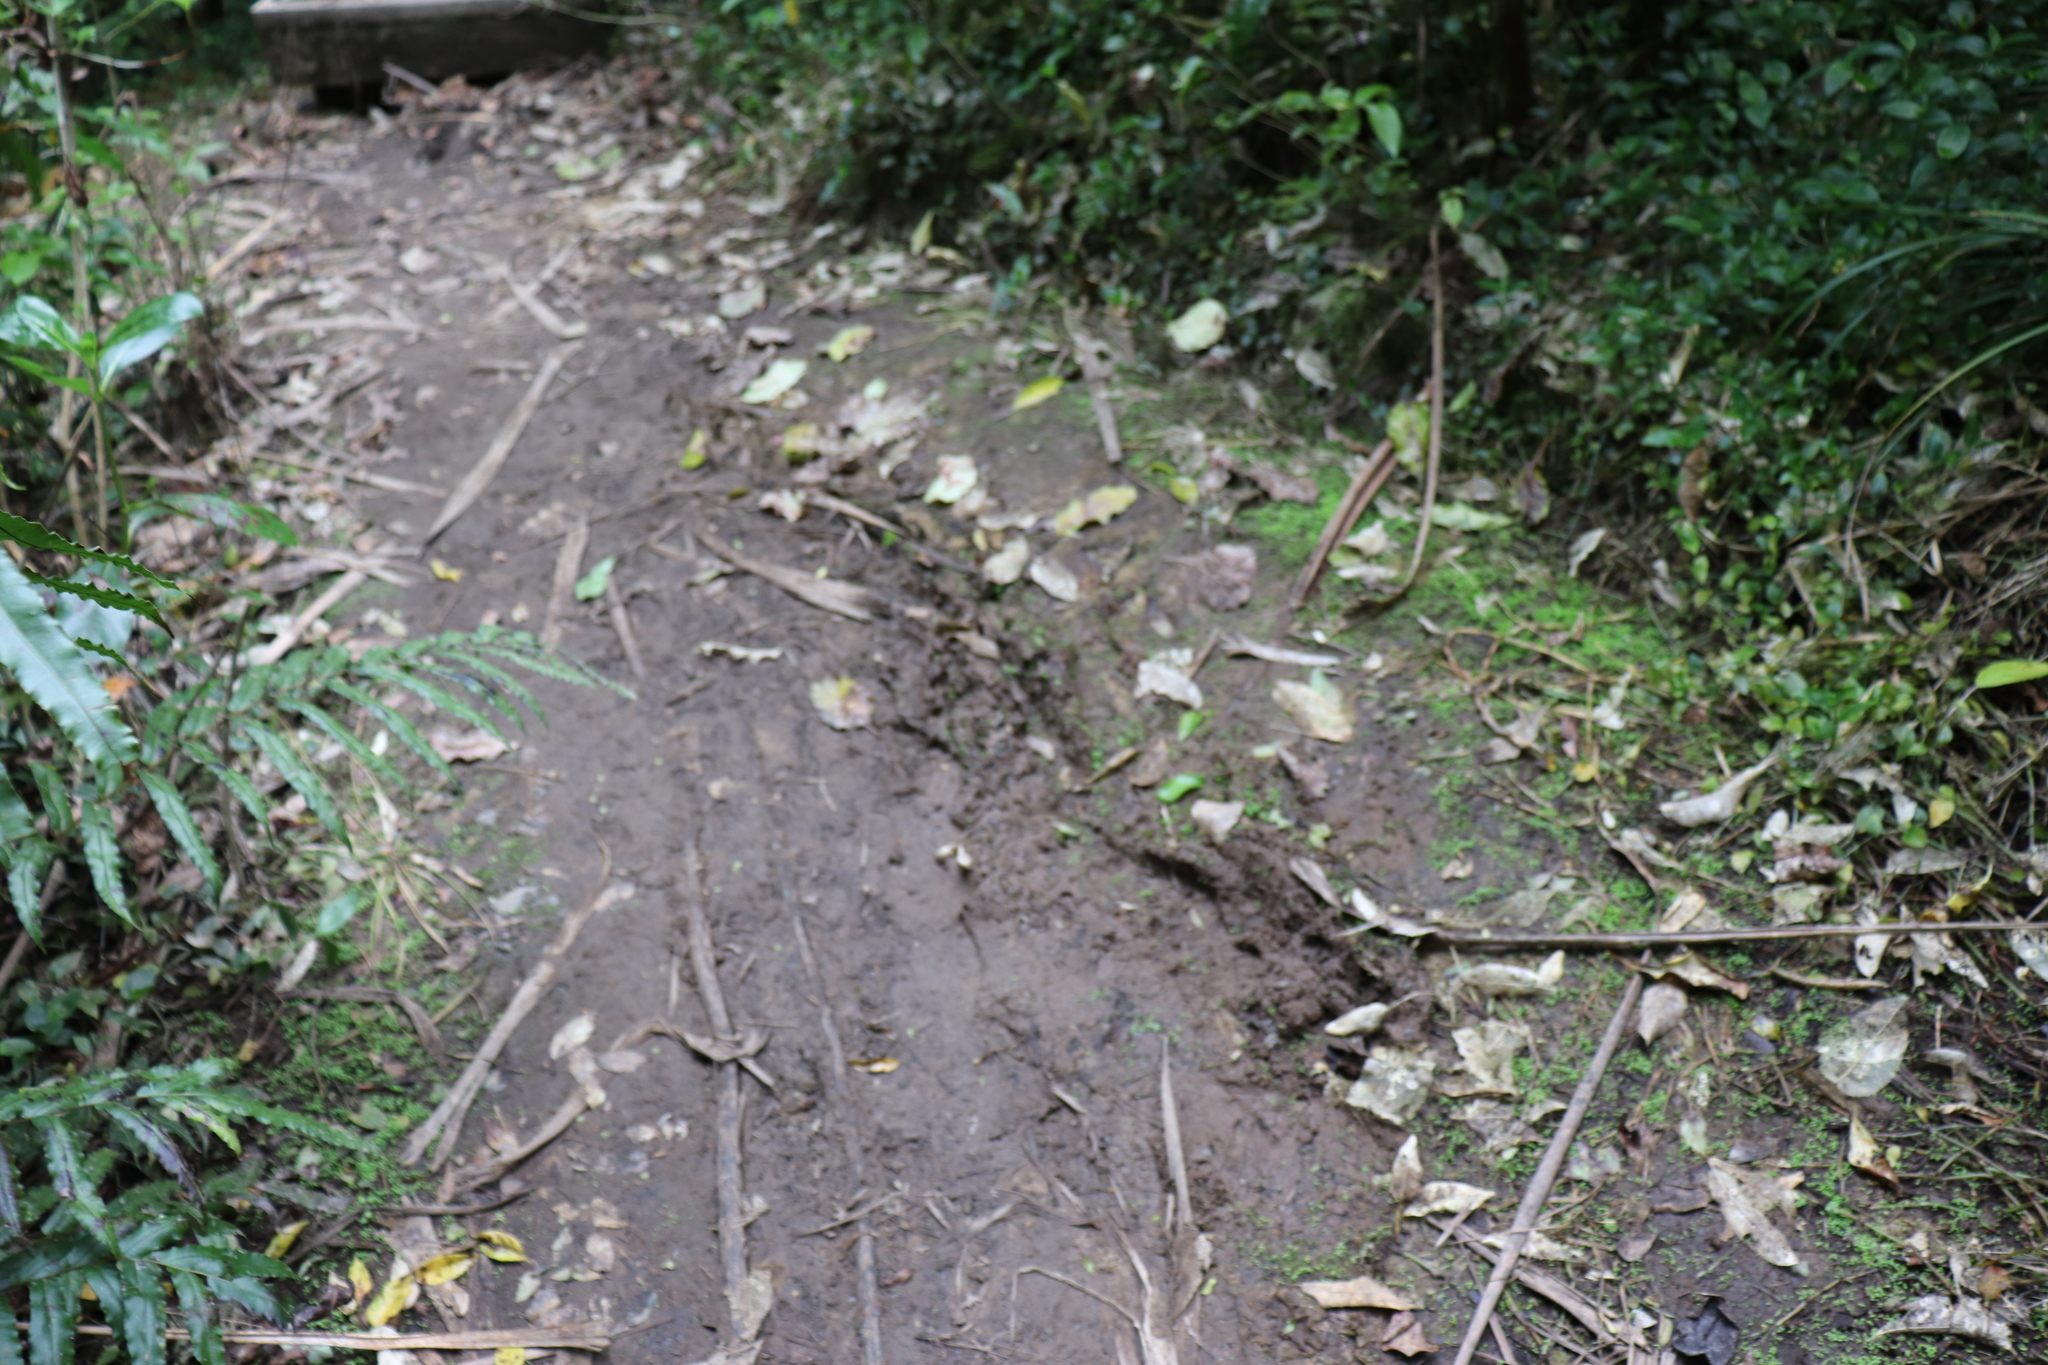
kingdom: Plantae
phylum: Tracheophyta
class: Polypodiopsida
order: Polypodiales
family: Blechnaceae
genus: Parablechnum
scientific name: Parablechnum novae-zelandiae
